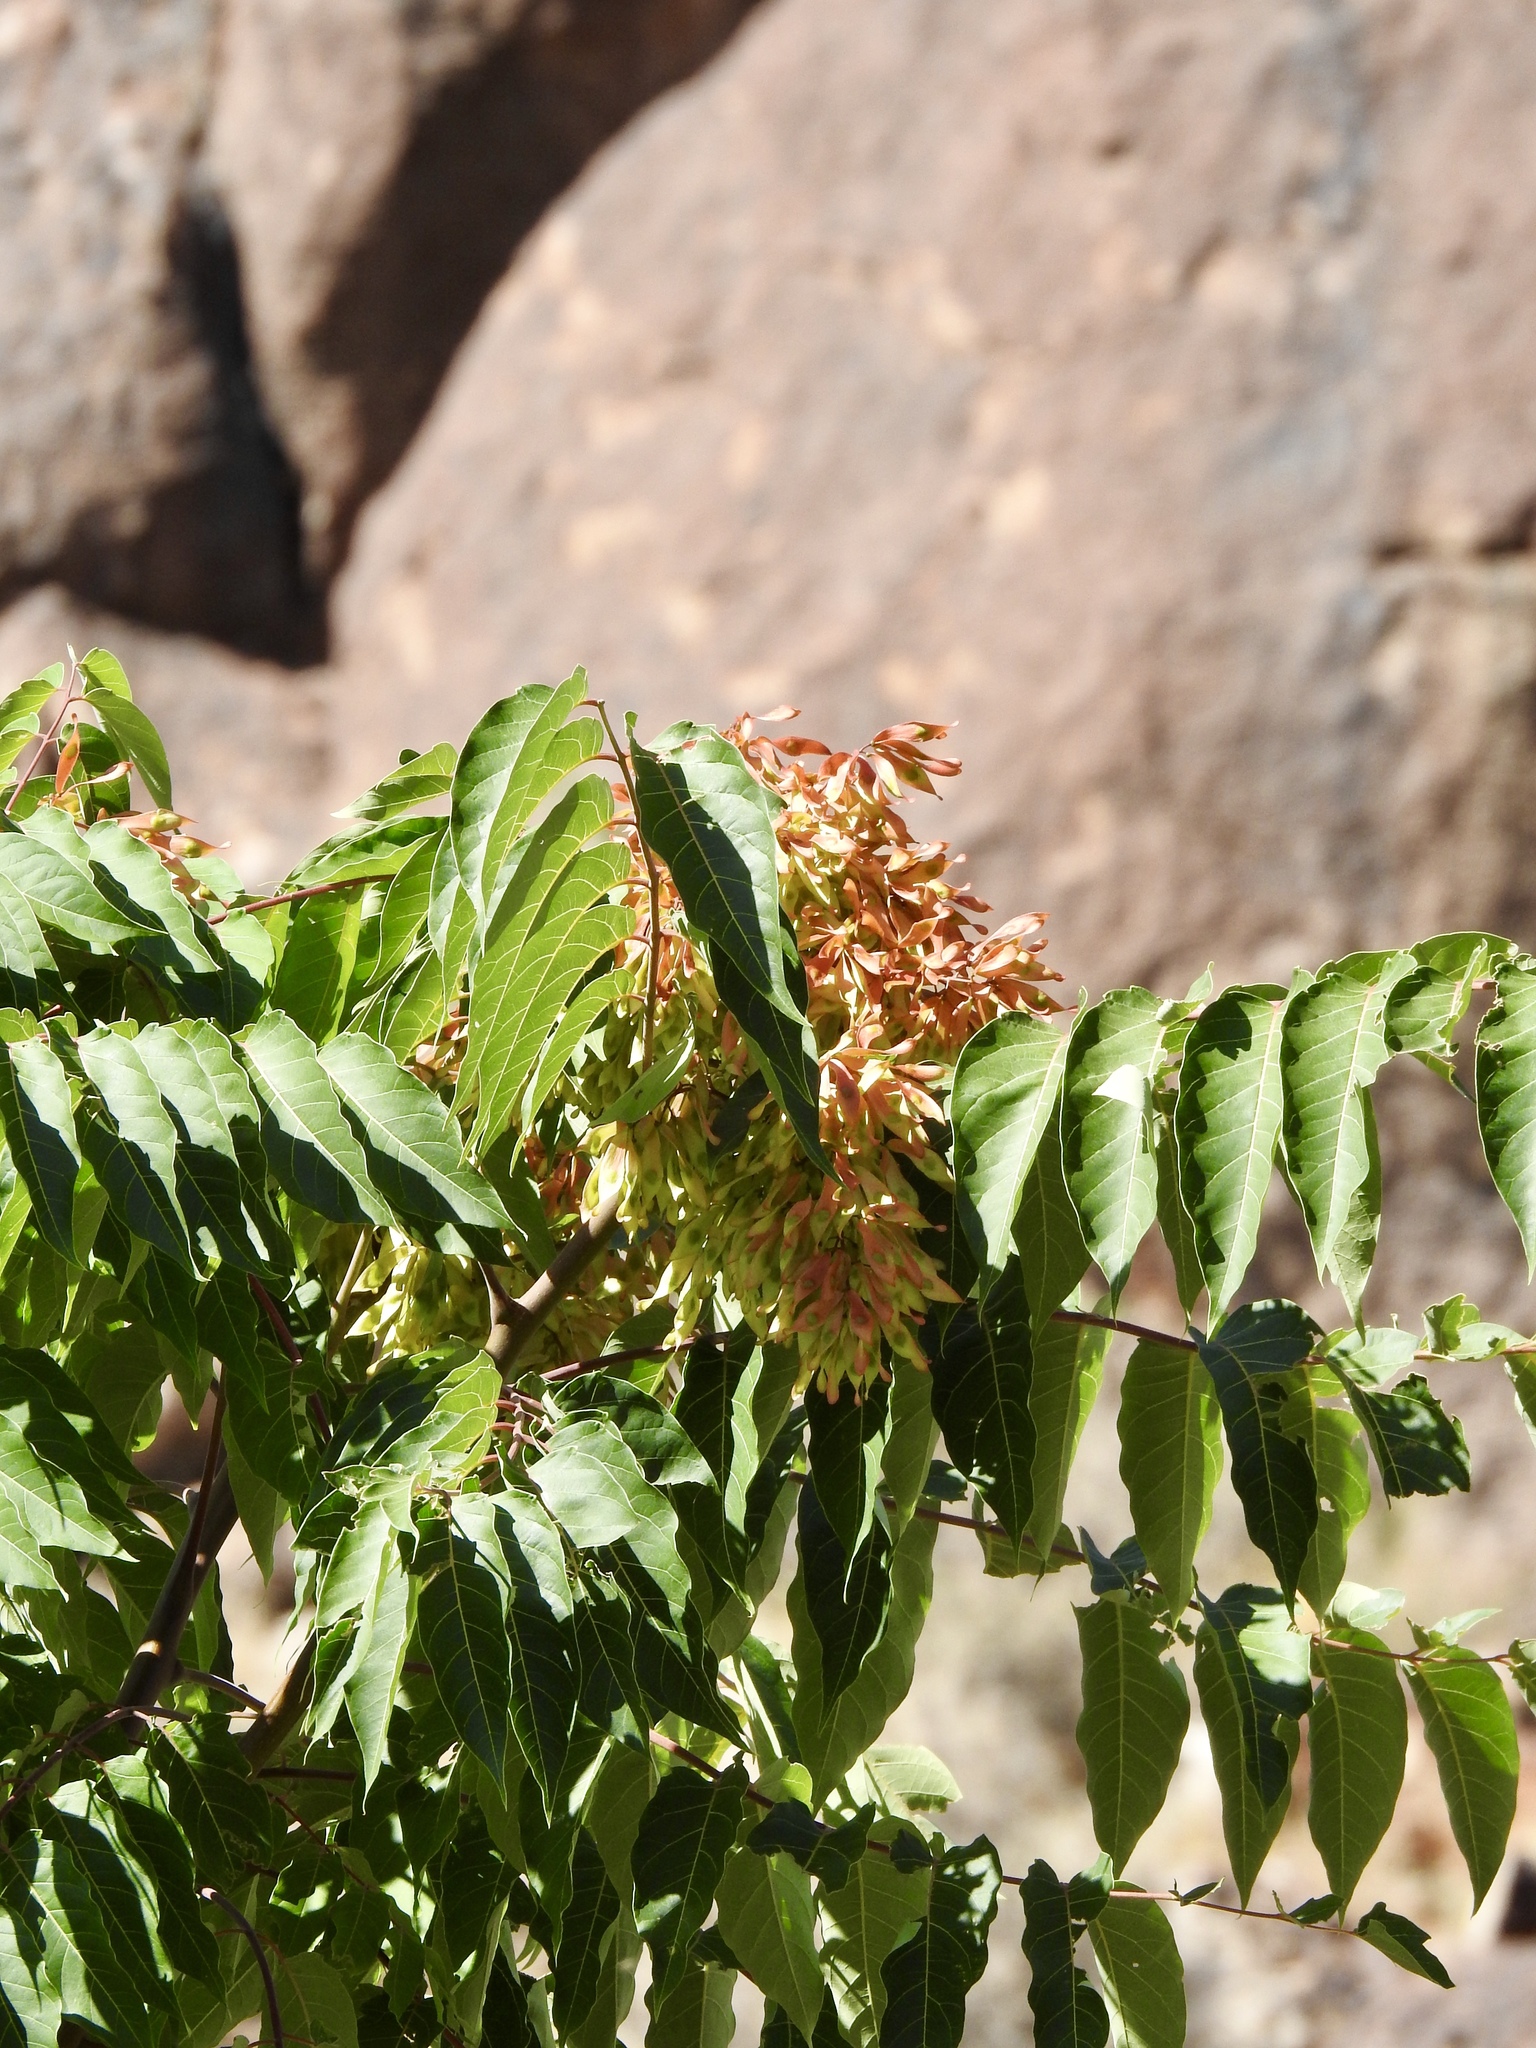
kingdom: Plantae
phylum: Tracheophyta
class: Magnoliopsida
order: Sapindales
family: Simaroubaceae
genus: Ailanthus
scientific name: Ailanthus altissima
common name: Tree-of-heaven
